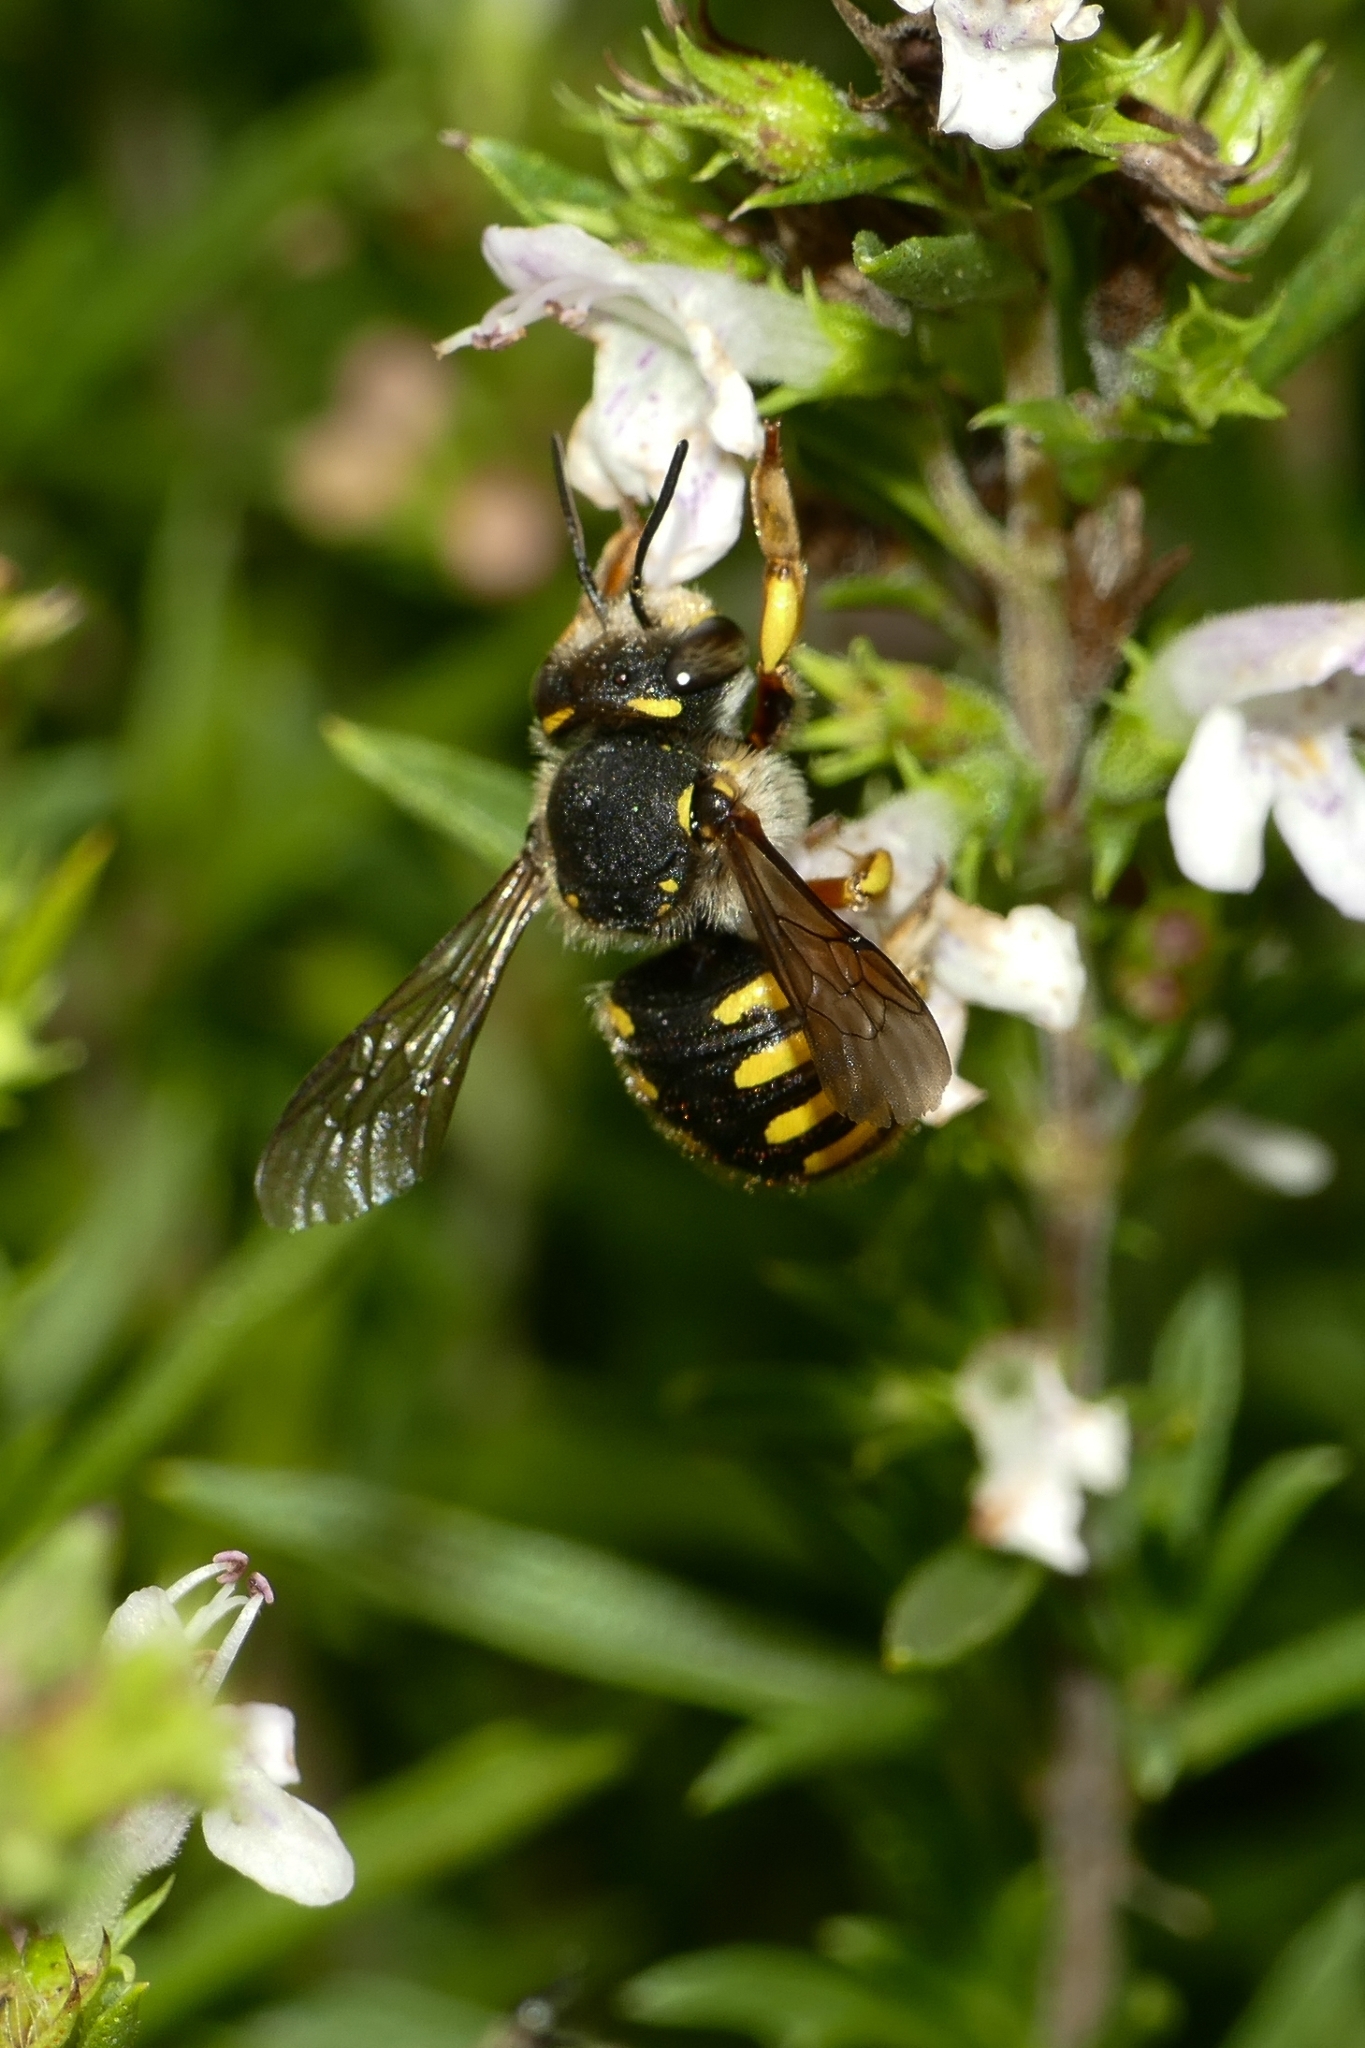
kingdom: Animalia
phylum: Arthropoda
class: Insecta
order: Hymenoptera
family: Megachilidae
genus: Anthidium
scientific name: Anthidium manicatum
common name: Wool carder bee
